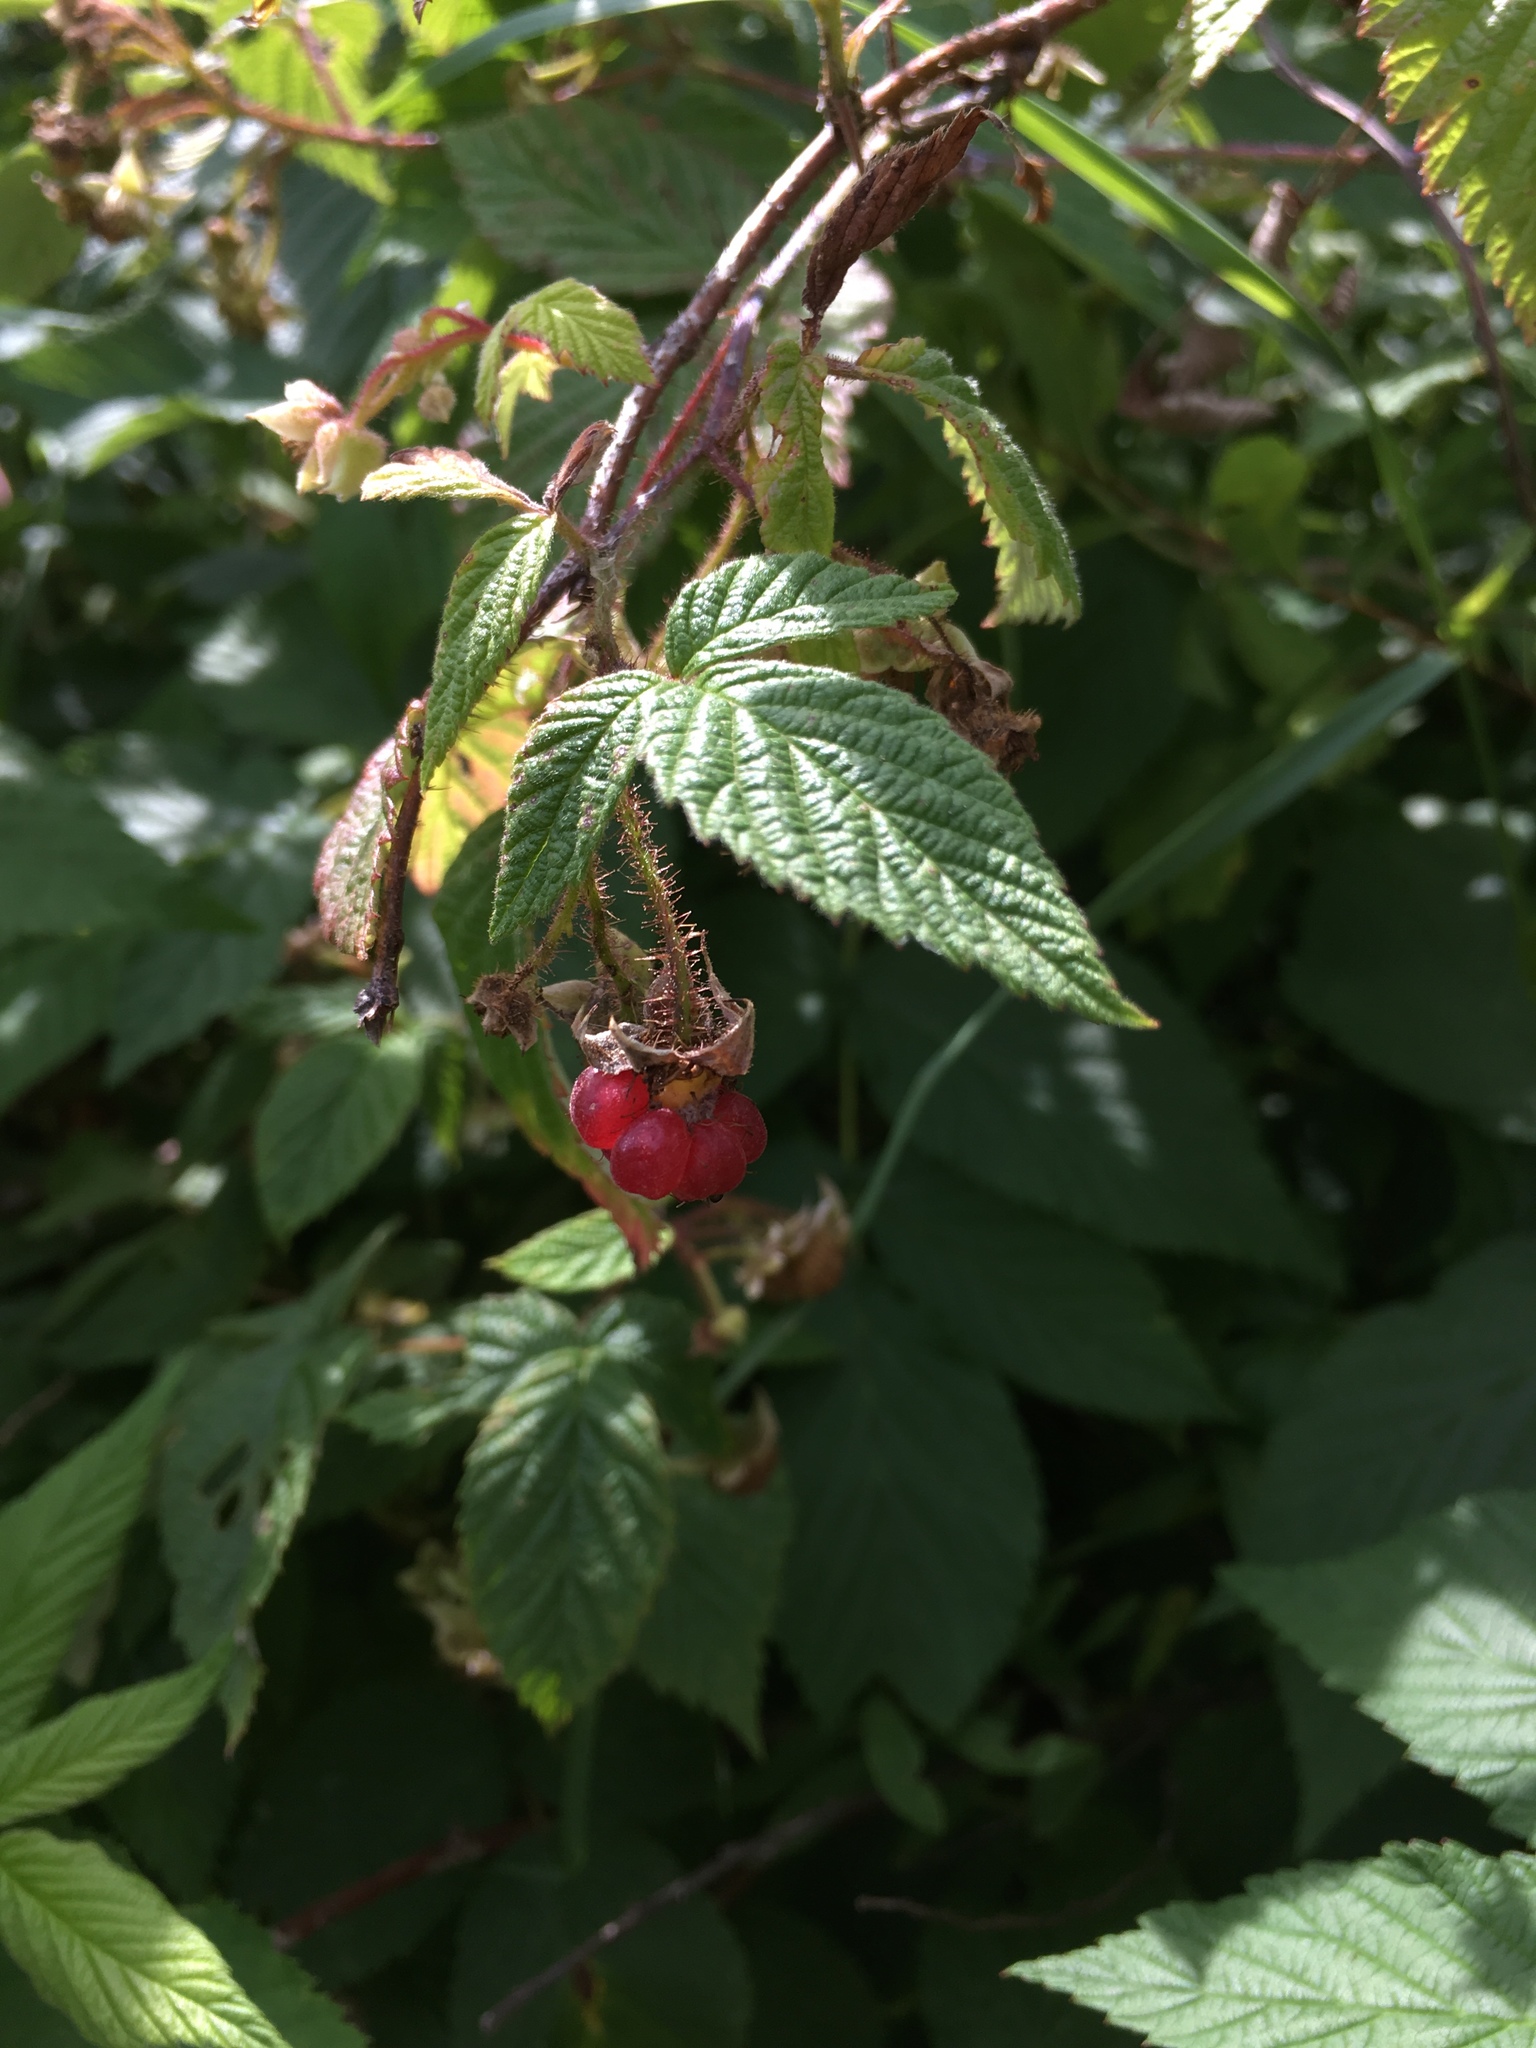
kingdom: Plantae
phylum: Tracheophyta
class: Magnoliopsida
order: Rosales
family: Rosaceae
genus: Rubus
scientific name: Rubus idaeus
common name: Raspberry
